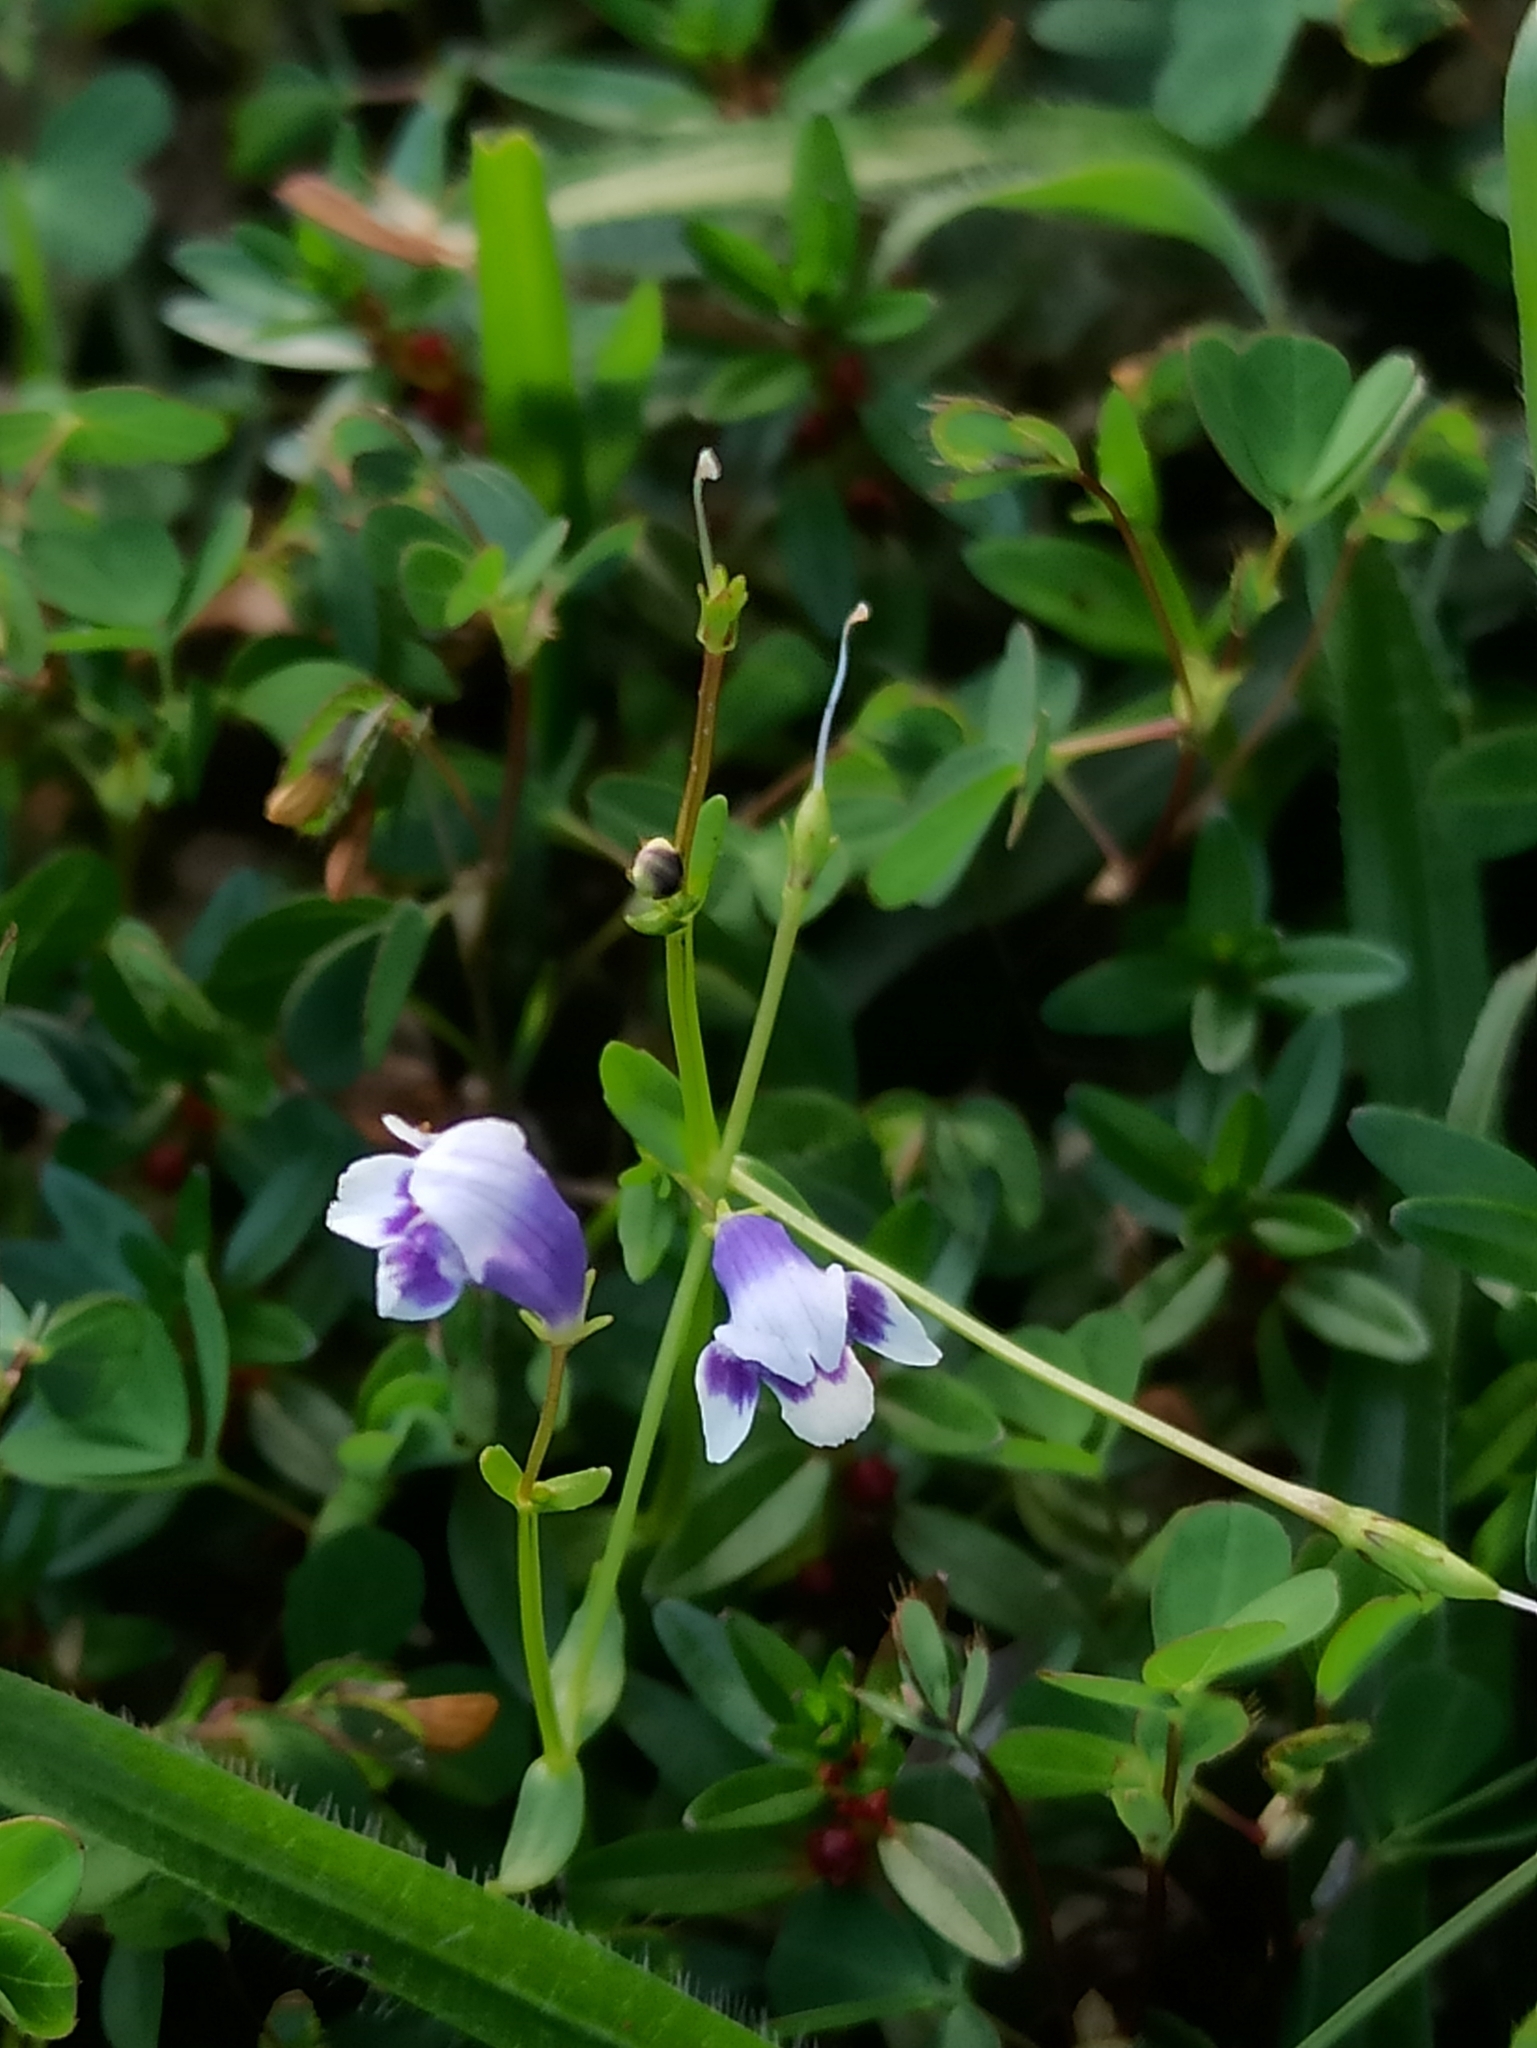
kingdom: Plantae
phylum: Tracheophyta
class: Magnoliopsida
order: Lamiales
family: Linderniaceae
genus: Lindernia
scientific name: Lindernia hyssopioides
